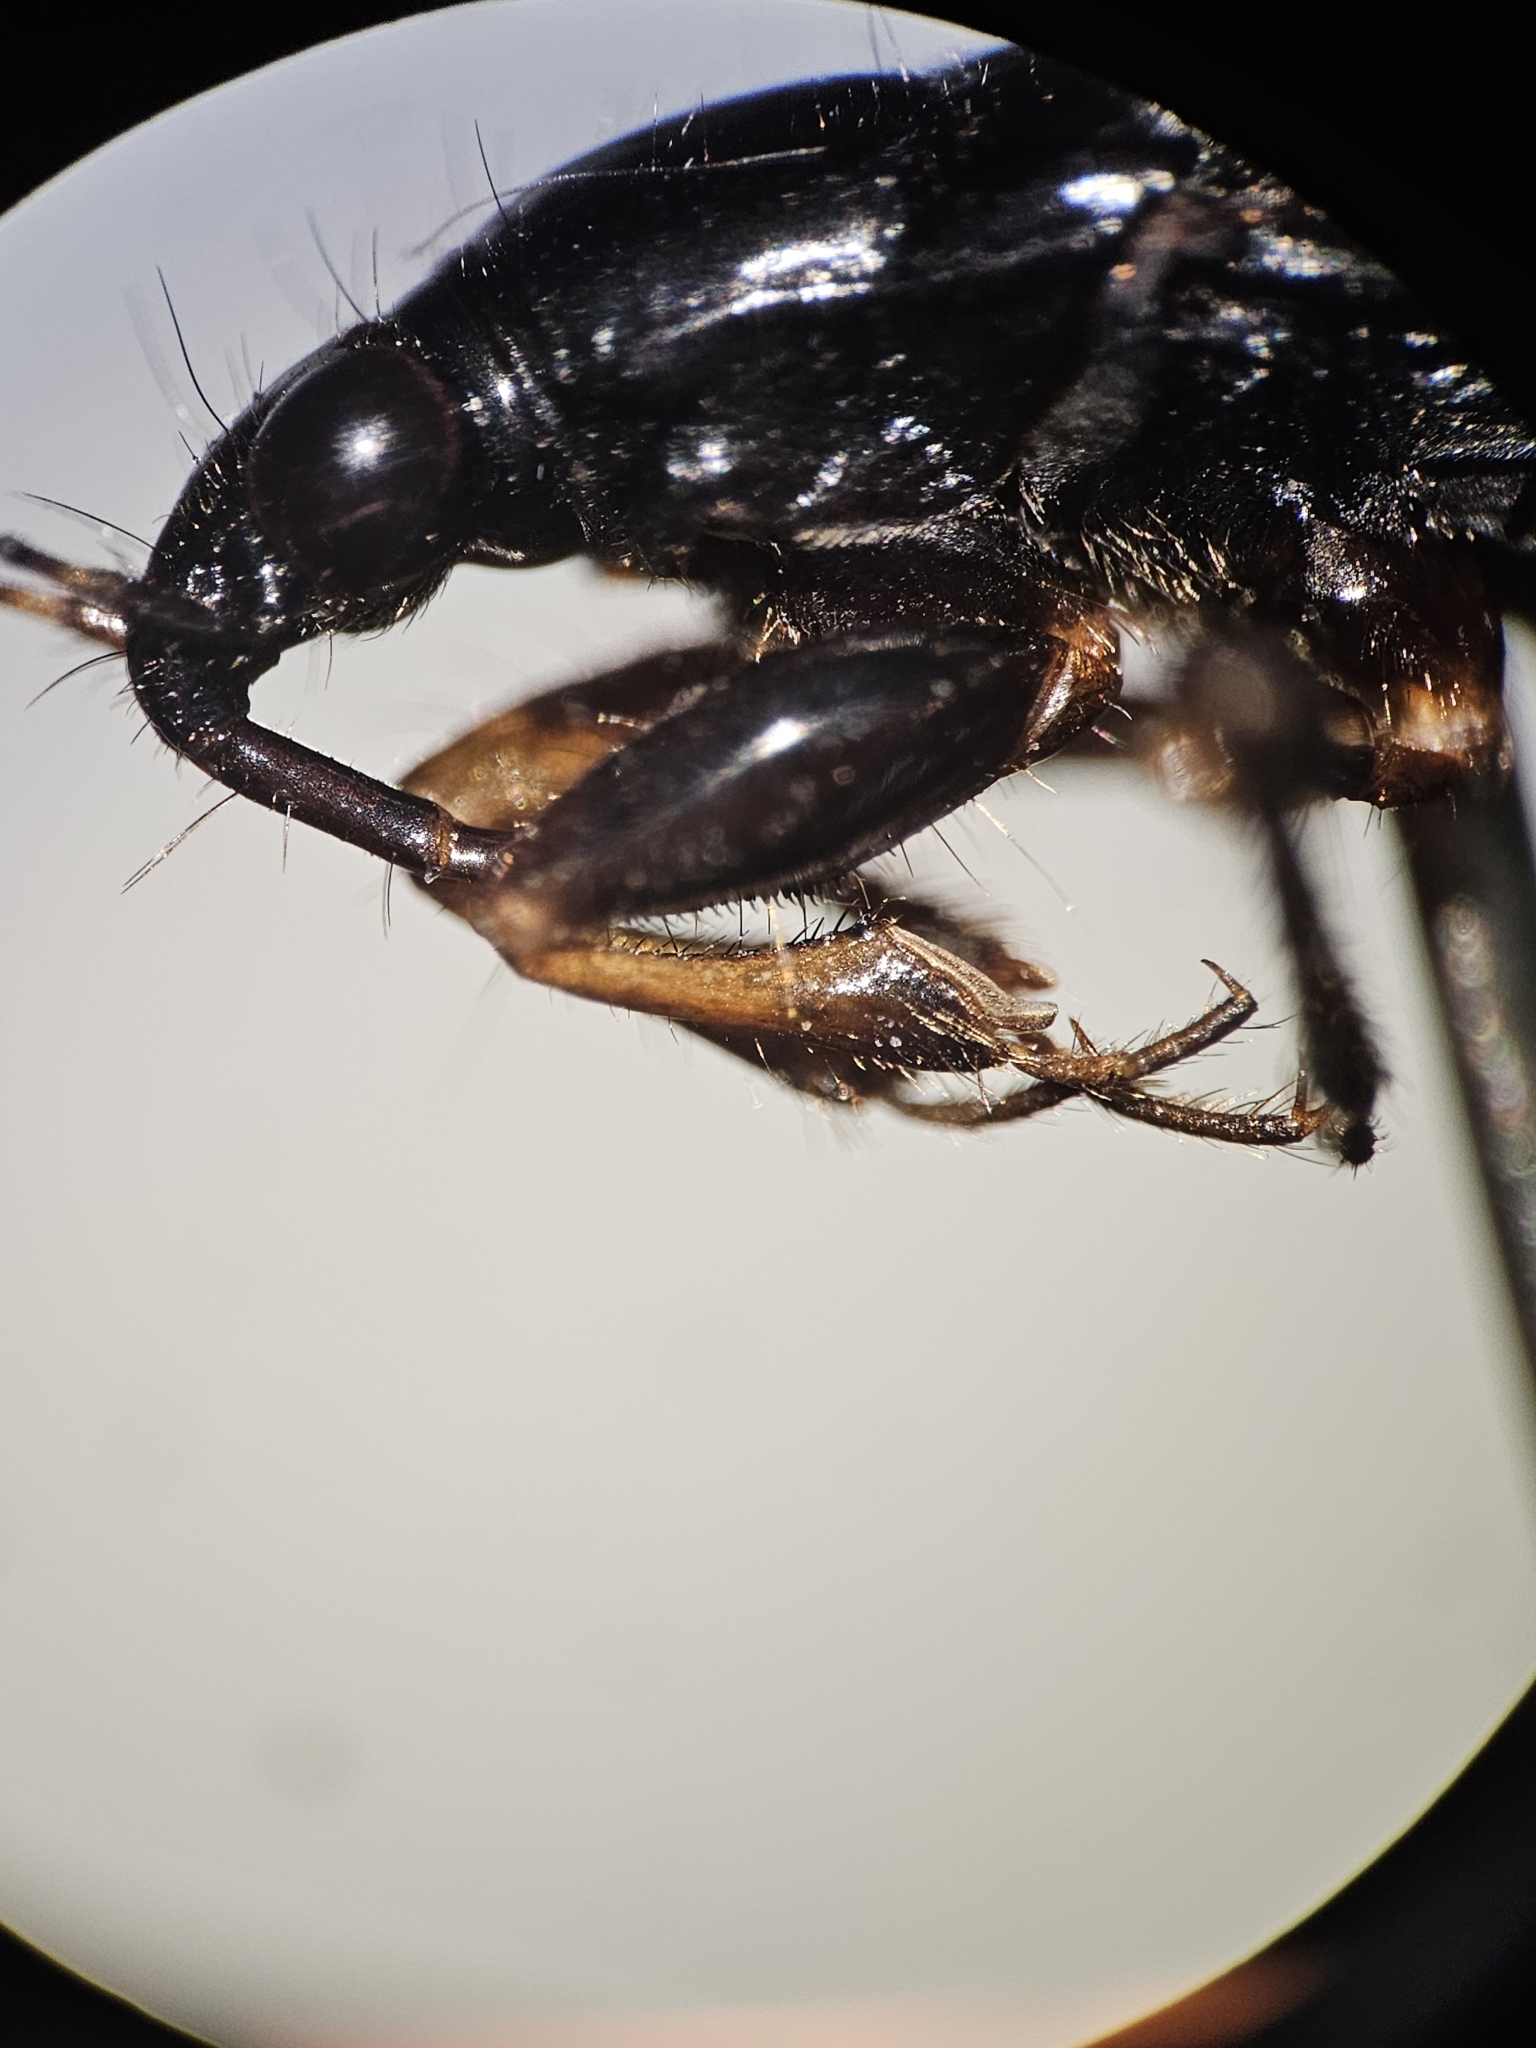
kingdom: Animalia
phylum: Arthropoda
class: Insecta
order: Hemiptera
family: Nabidae
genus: Pagasa
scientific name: Pagasa fusca
